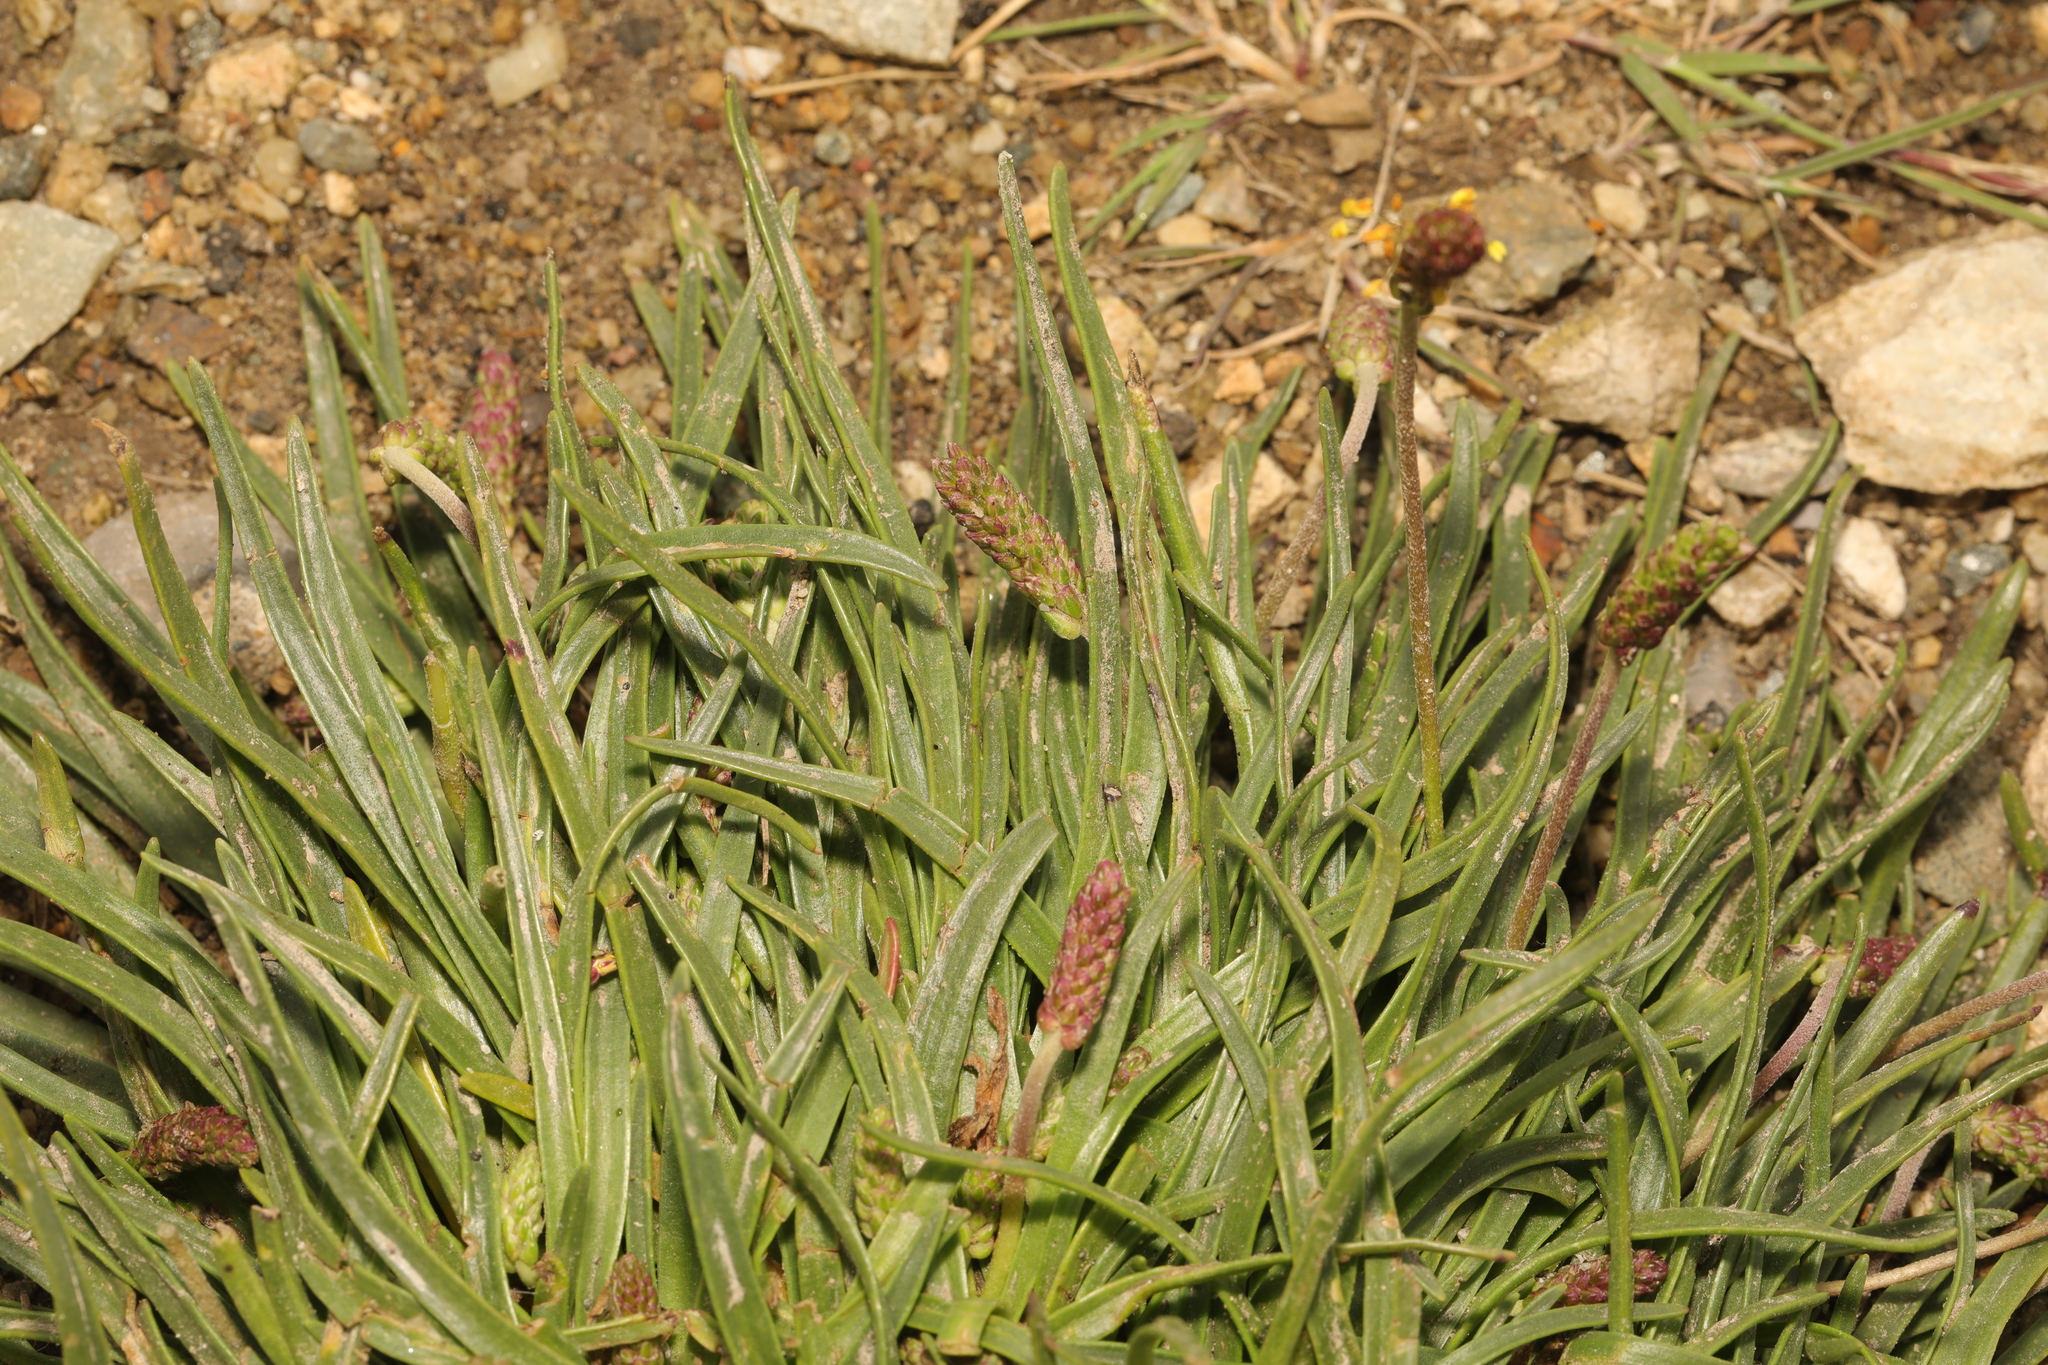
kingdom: Plantae
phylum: Tracheophyta
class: Magnoliopsida
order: Lamiales
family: Plantaginaceae
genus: Plantago
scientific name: Plantago maritima
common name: Sea plantain
